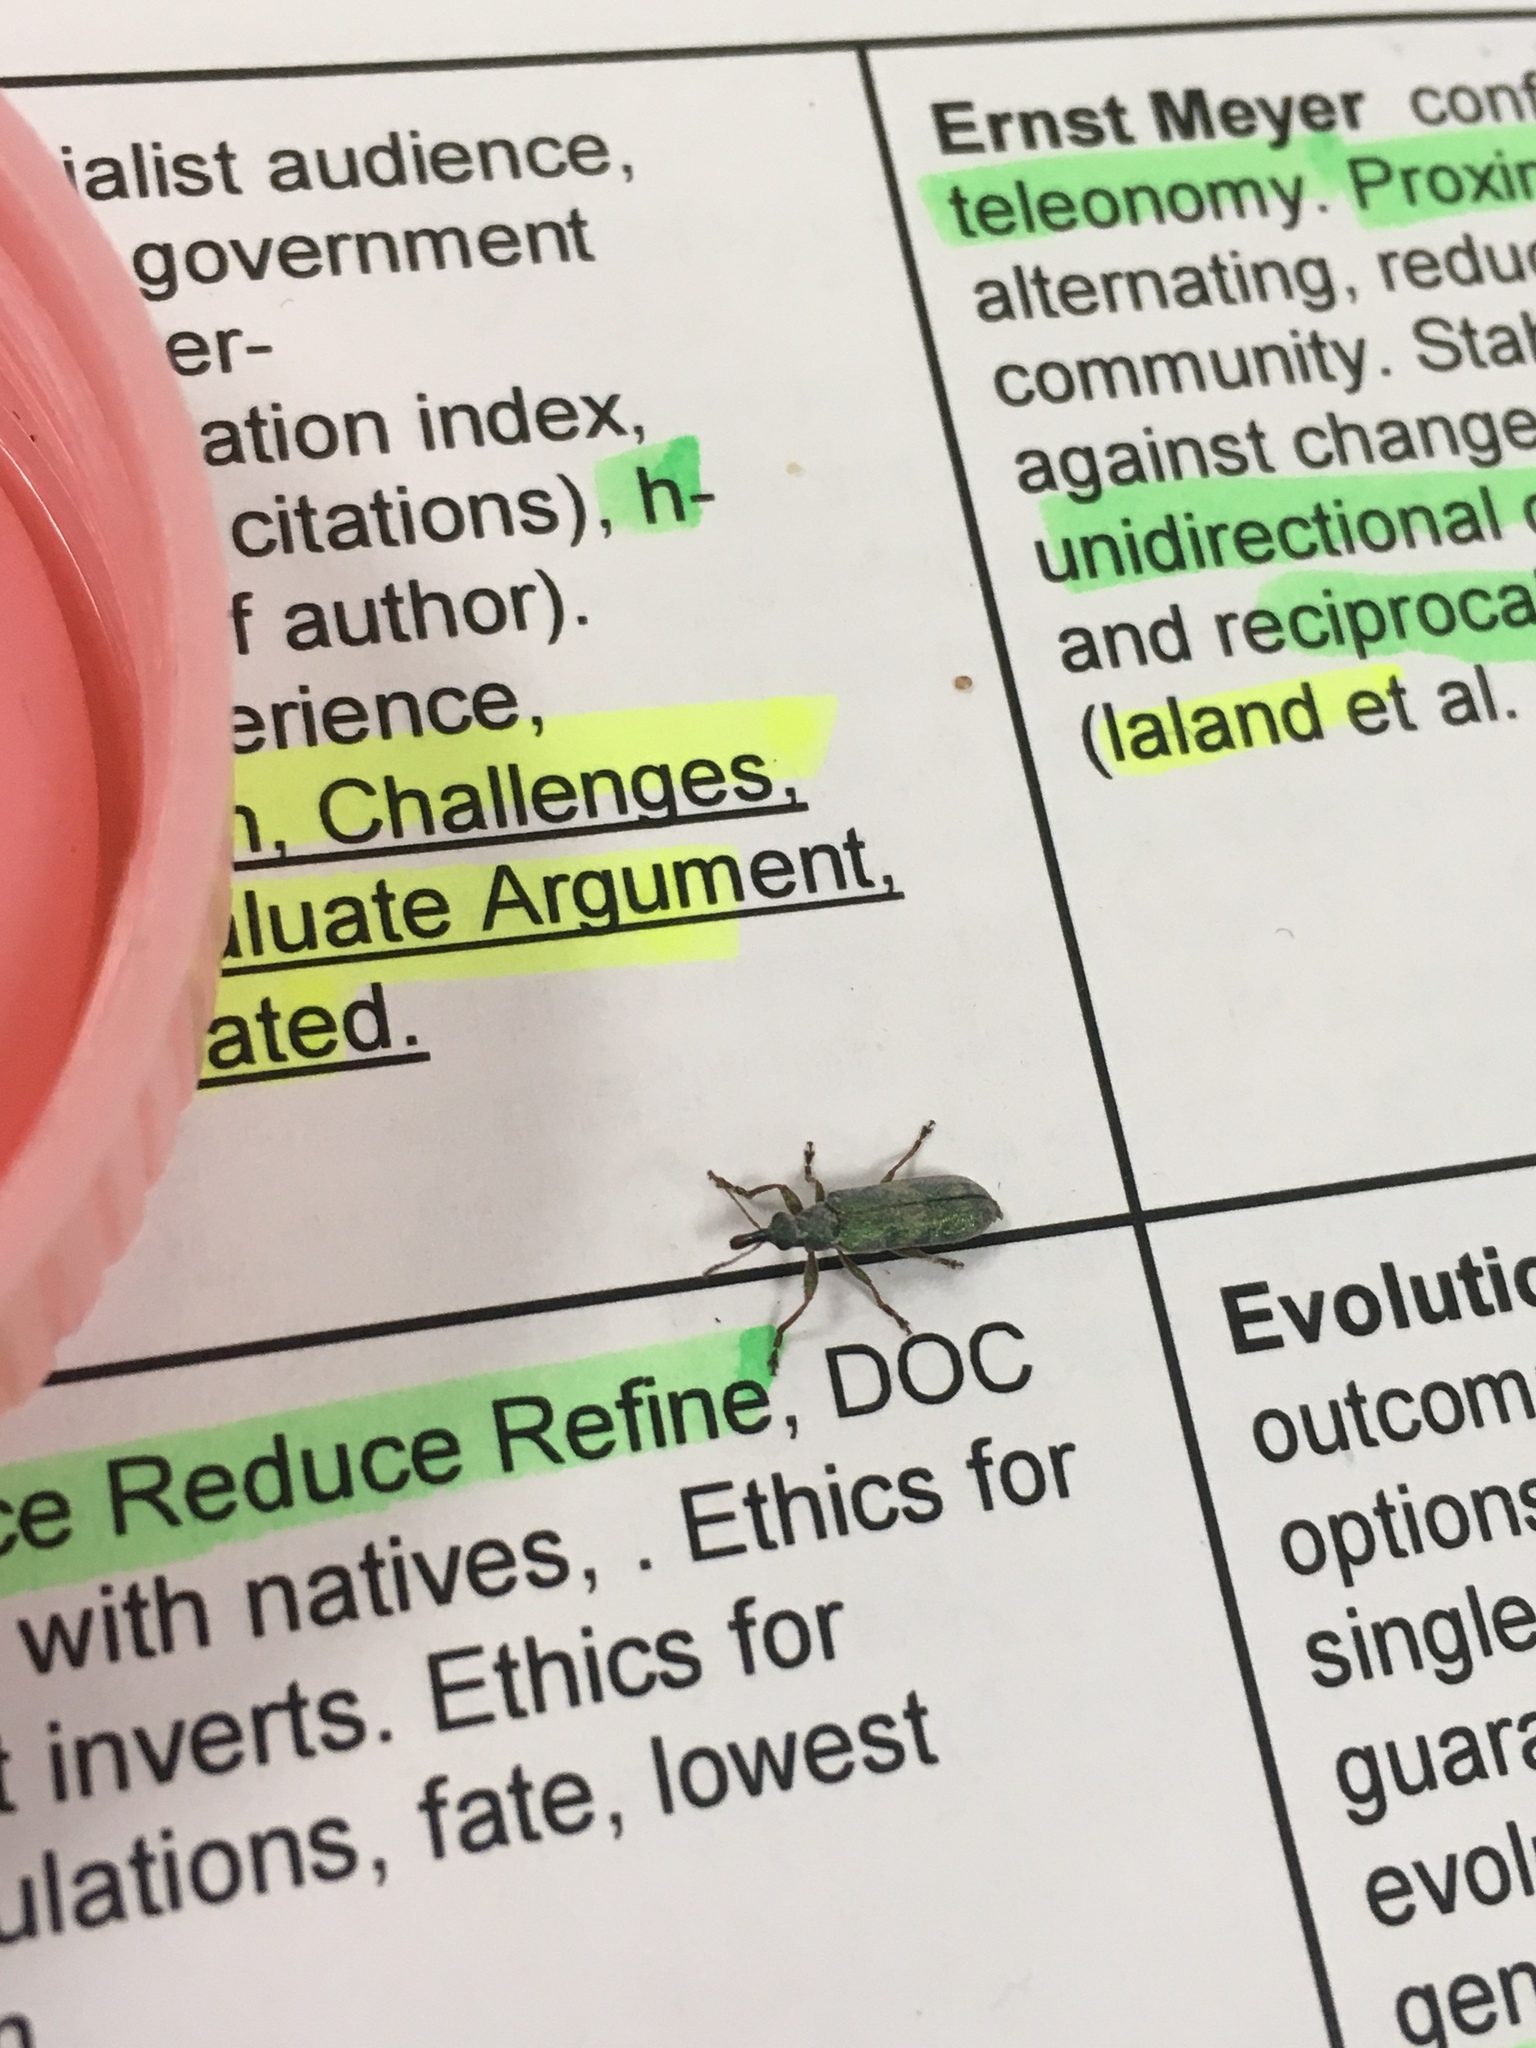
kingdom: Animalia
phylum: Arthropoda
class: Insecta
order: Coleoptera
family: Belidae
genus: Rhicnobelus
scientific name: Rhicnobelus
